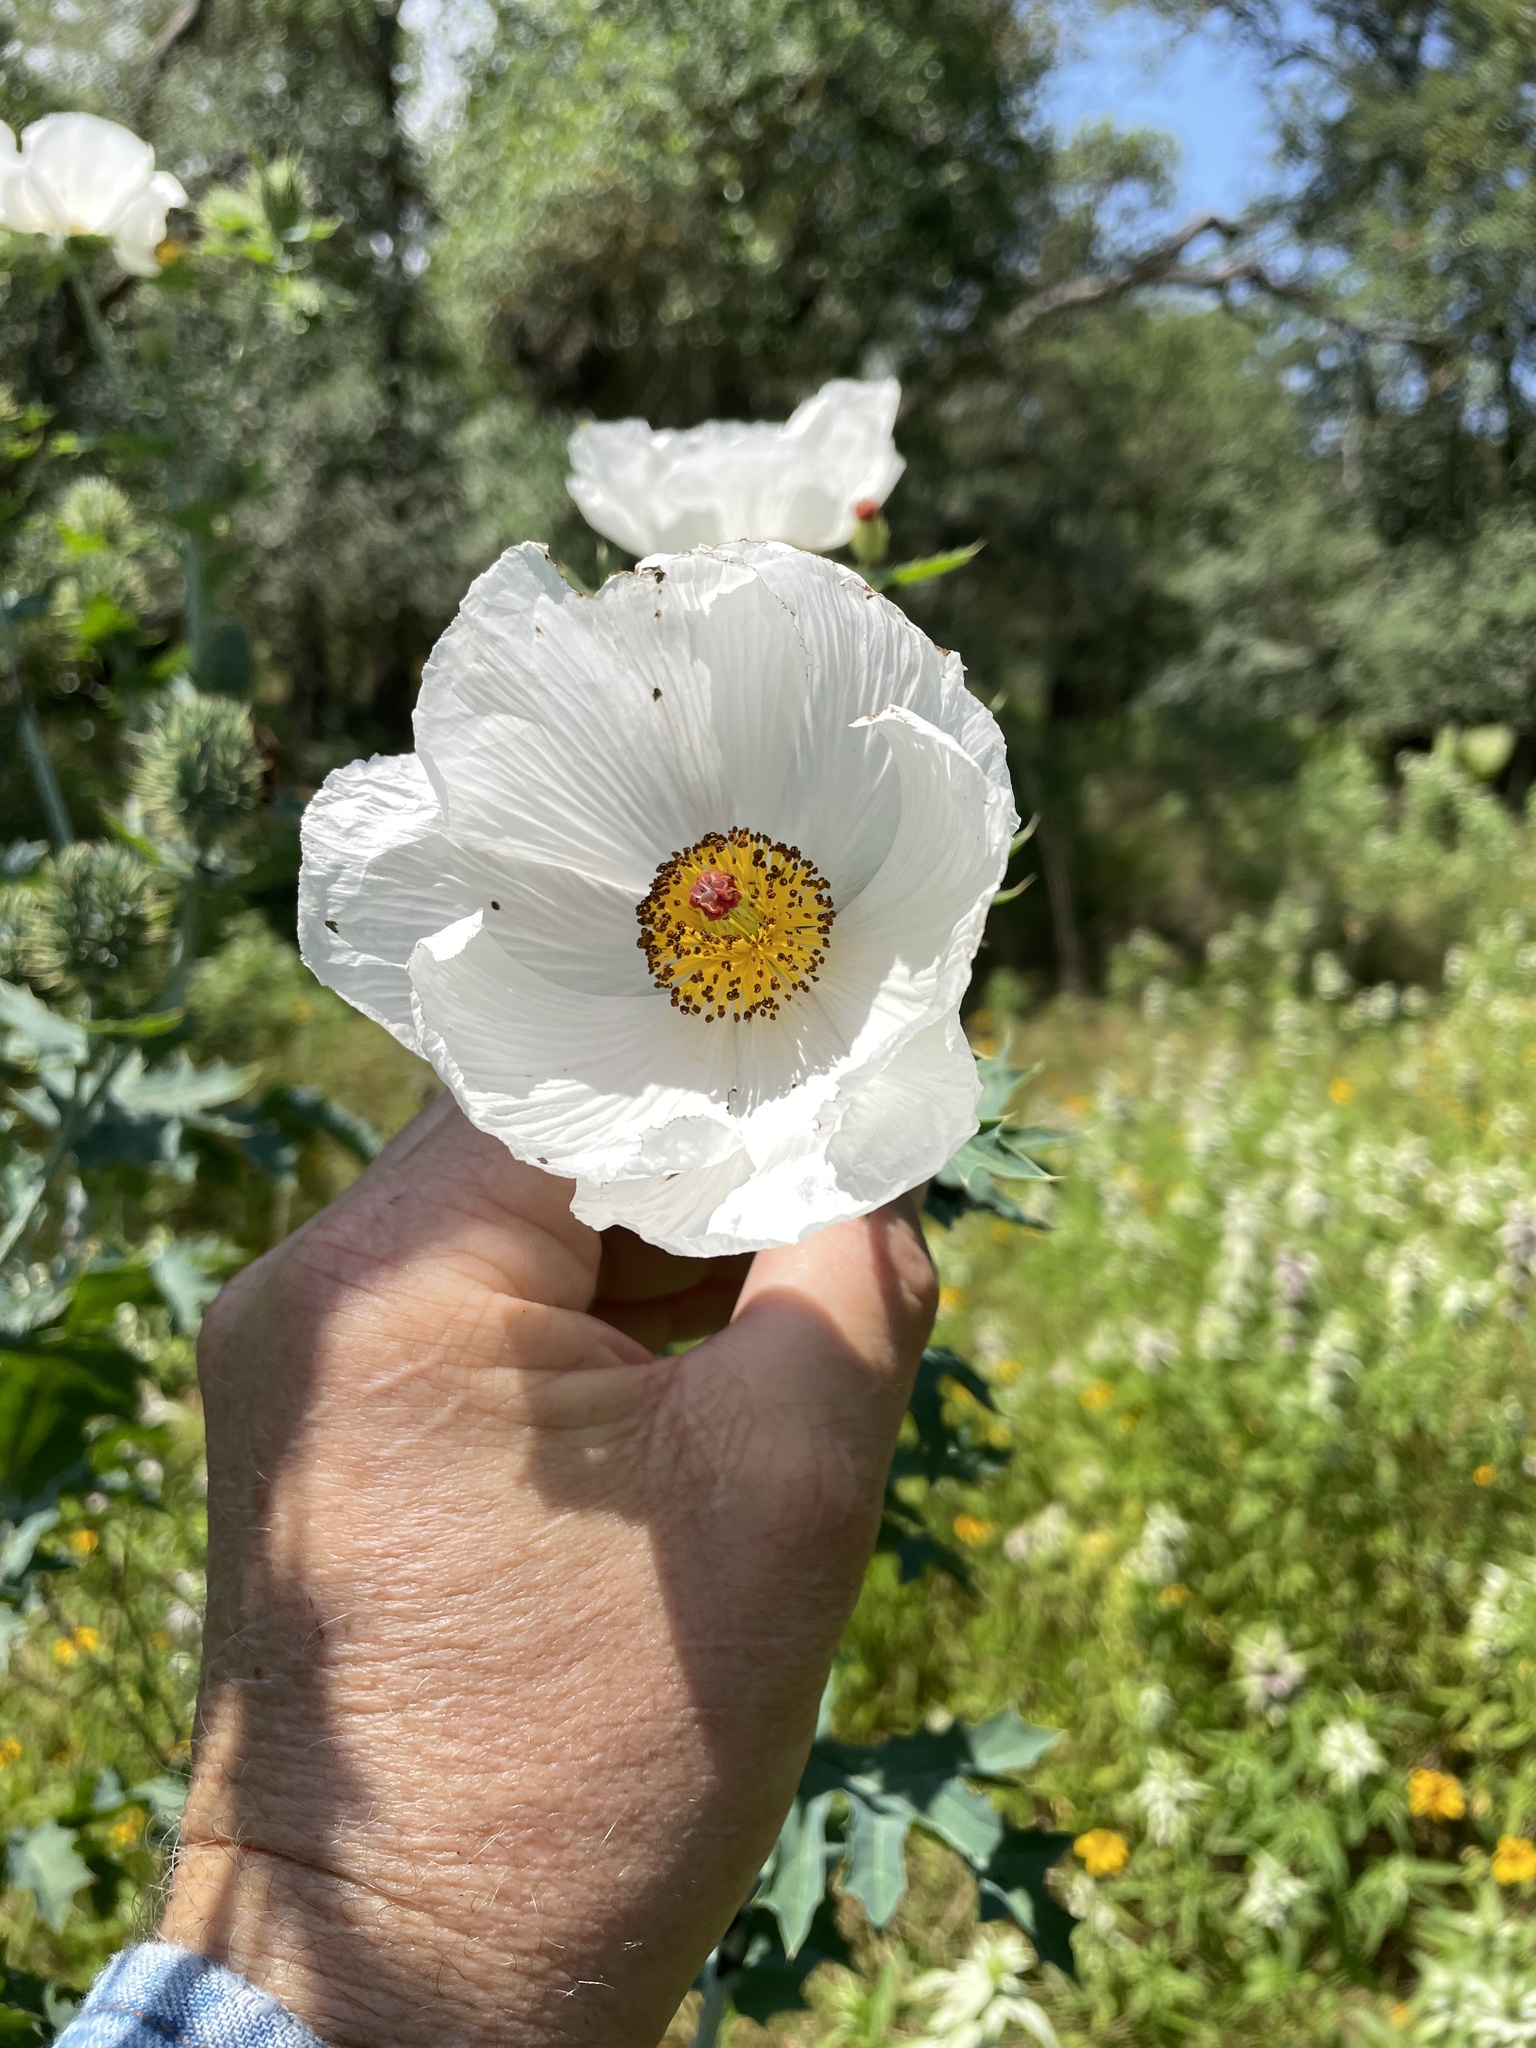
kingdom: Plantae
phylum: Tracheophyta
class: Magnoliopsida
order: Ranunculales
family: Papaveraceae
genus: Argemone
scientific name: Argemone albiflora
